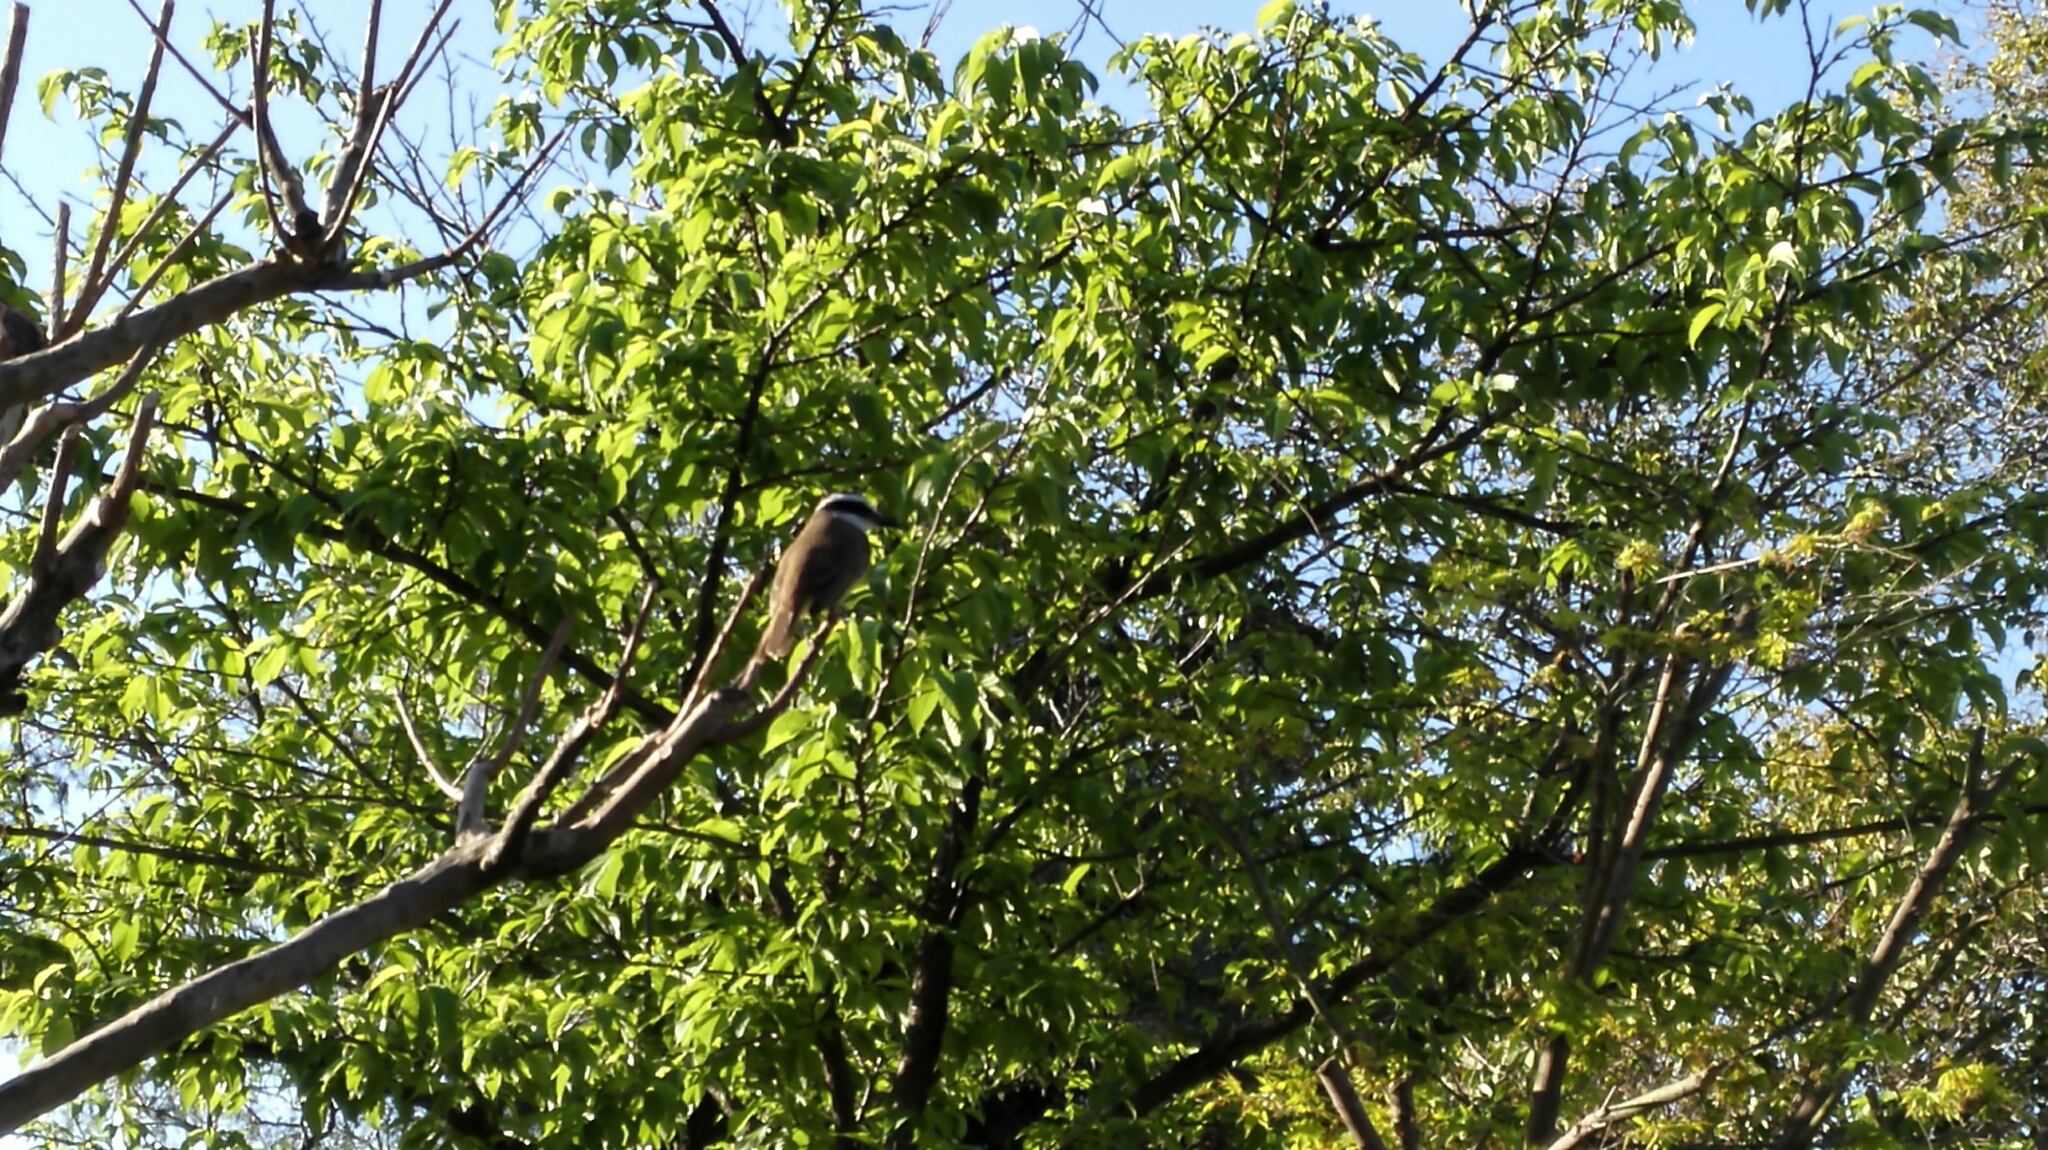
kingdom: Animalia
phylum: Chordata
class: Aves
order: Passeriformes
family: Tyrannidae
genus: Pitangus
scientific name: Pitangus sulphuratus
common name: Great kiskadee
